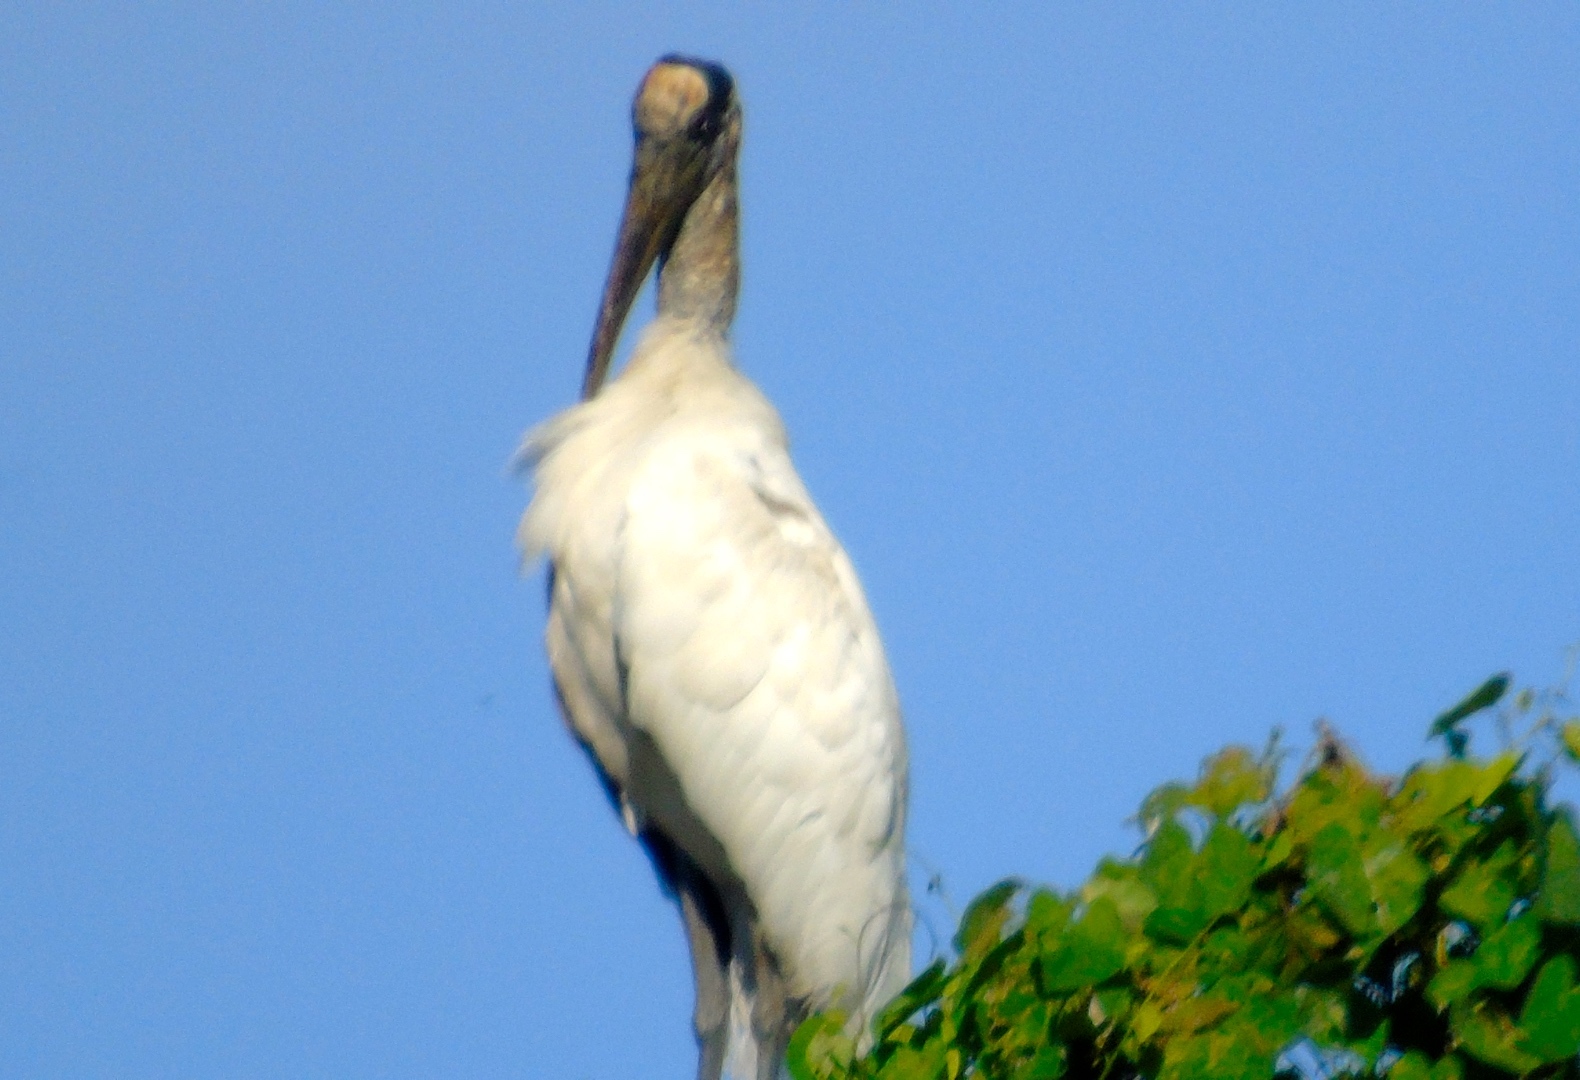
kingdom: Animalia
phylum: Chordata
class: Aves
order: Ciconiiformes
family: Ciconiidae
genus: Mycteria
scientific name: Mycteria americana
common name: Wood stork
